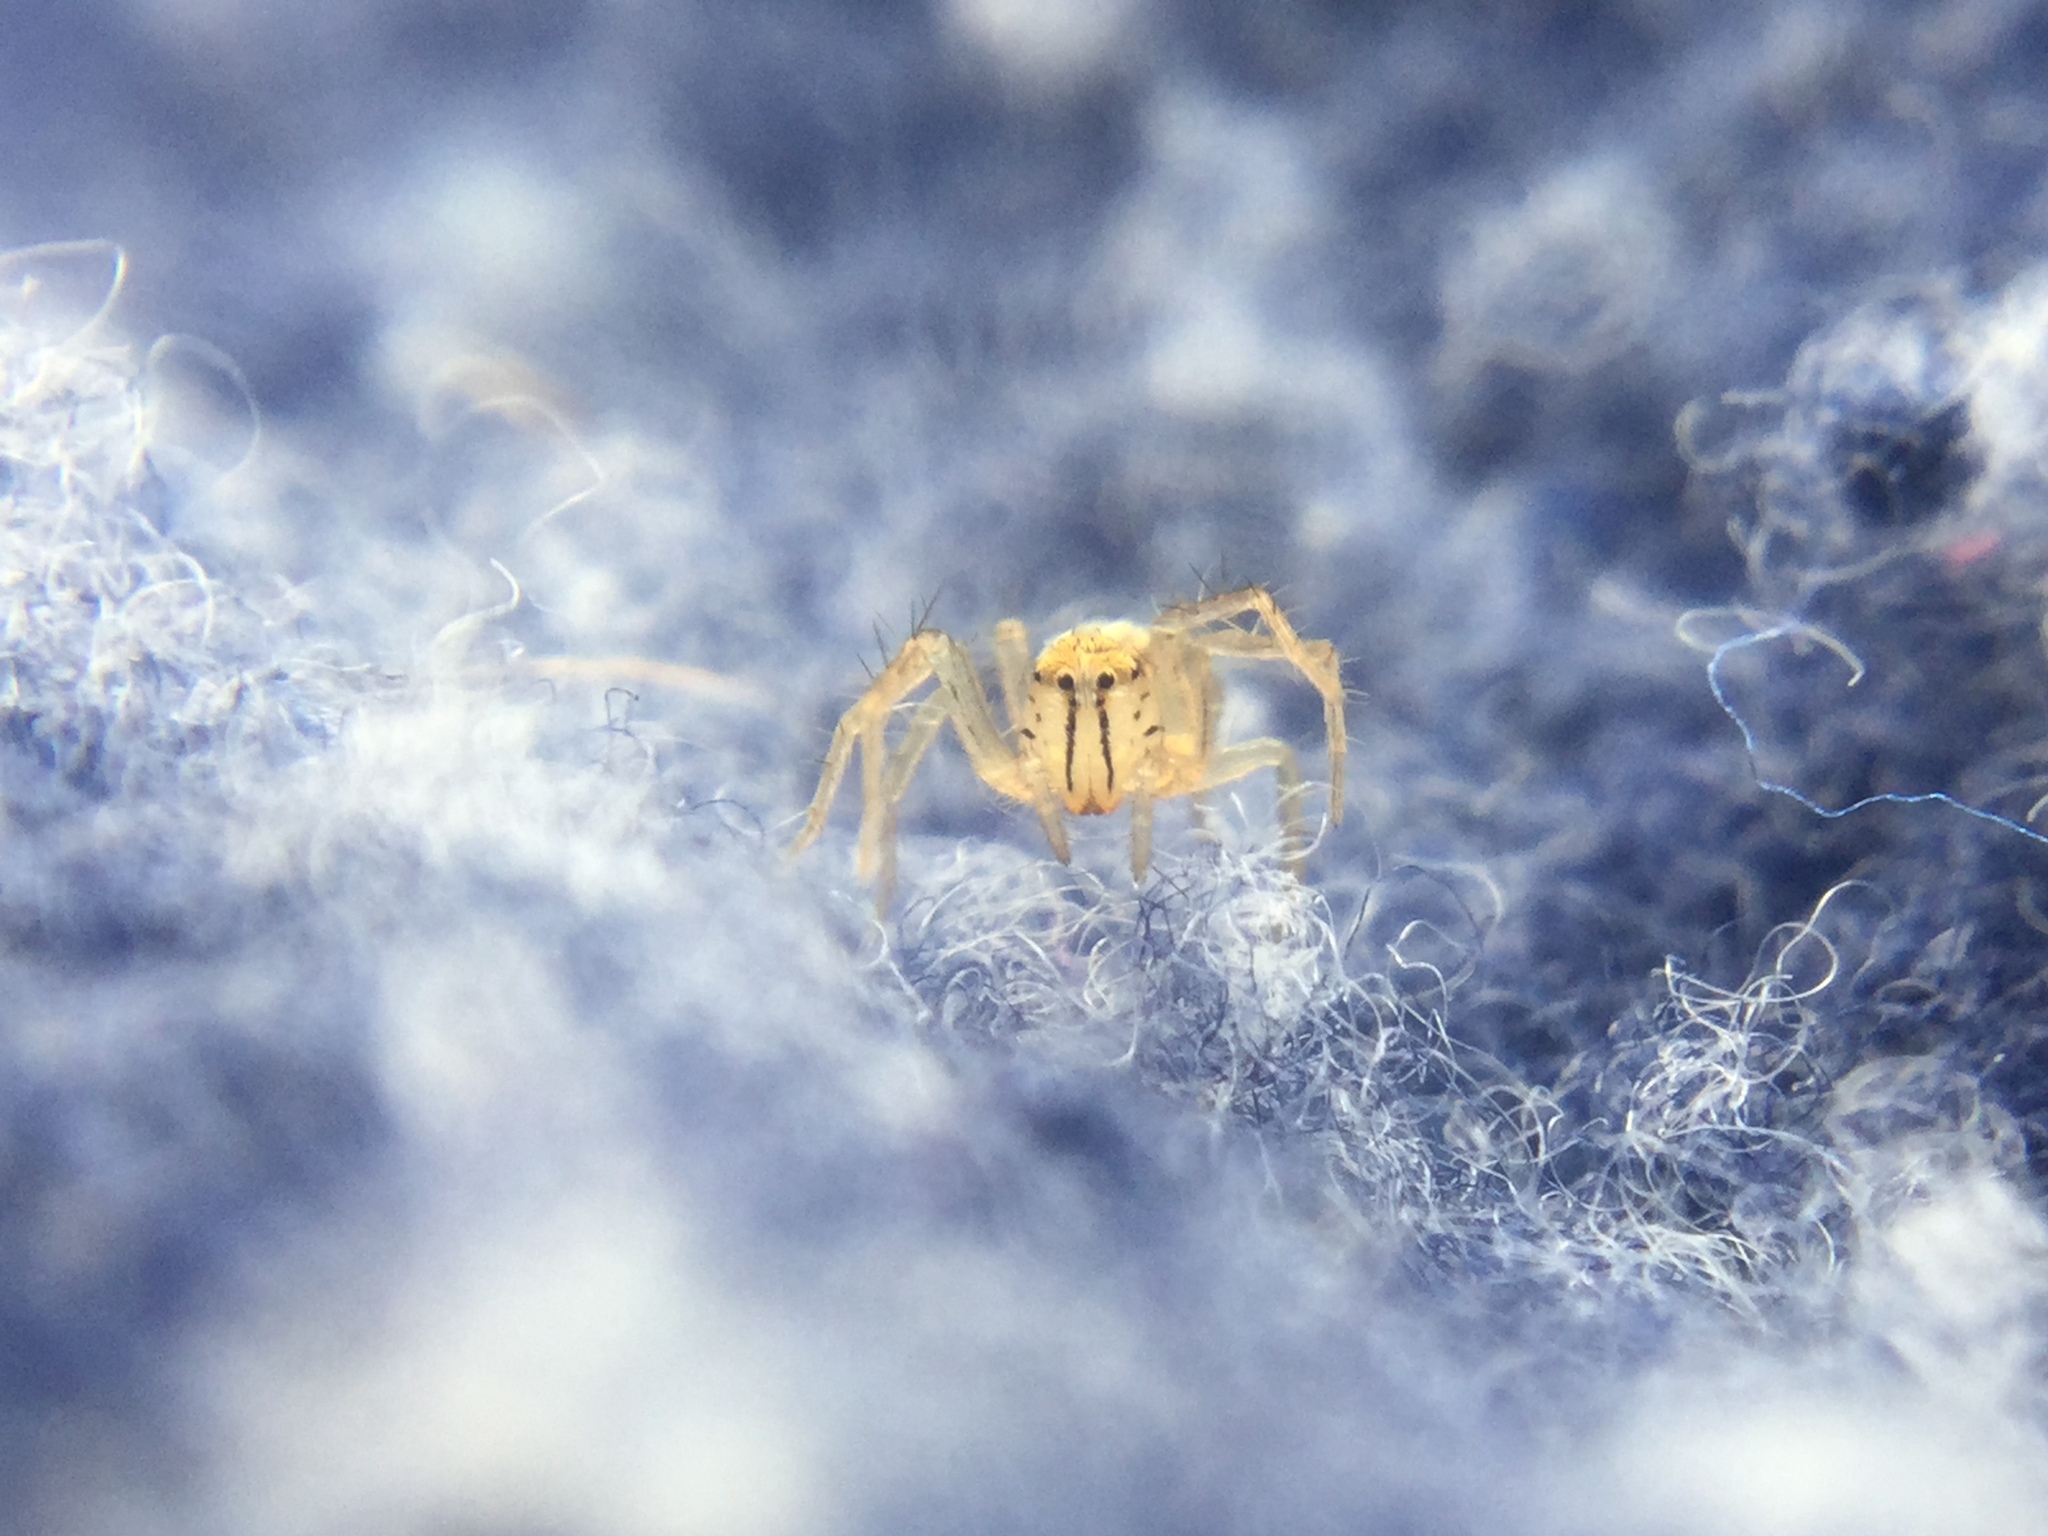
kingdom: Animalia
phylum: Arthropoda
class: Arachnida
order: Araneae
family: Oxyopidae
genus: Oxyopes
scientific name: Oxyopes salticus
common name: Lynx spiders
